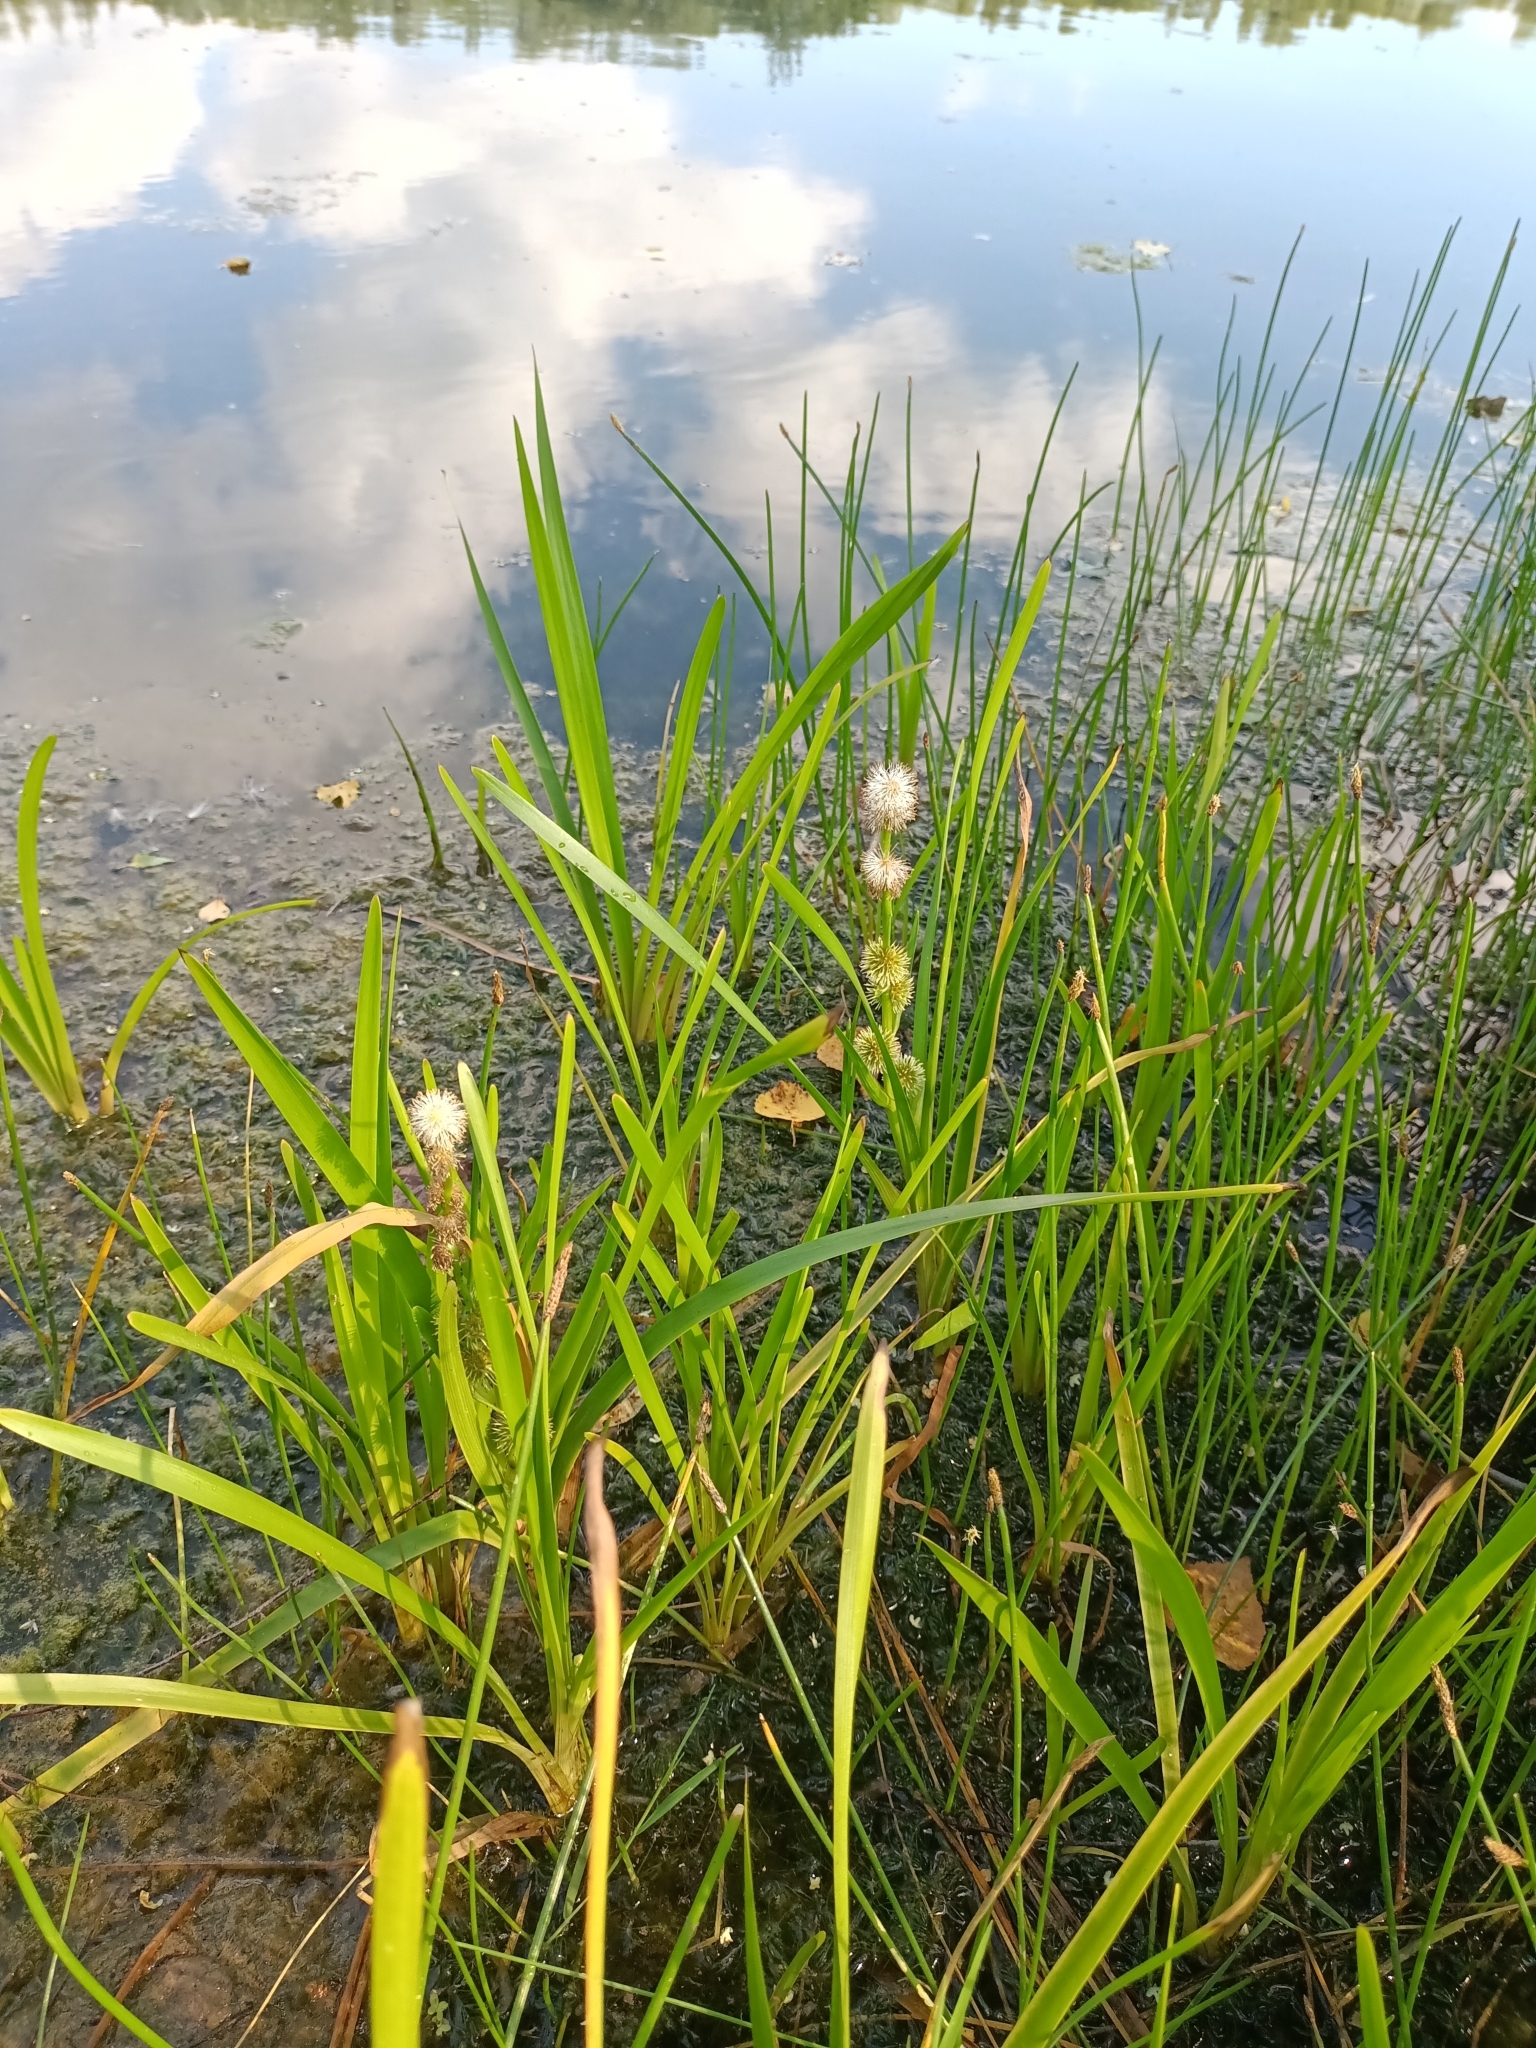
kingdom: Plantae
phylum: Tracheophyta
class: Liliopsida
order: Poales
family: Typhaceae
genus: Sparganium
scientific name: Sparganium emersum
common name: Unbranched bur-reed
